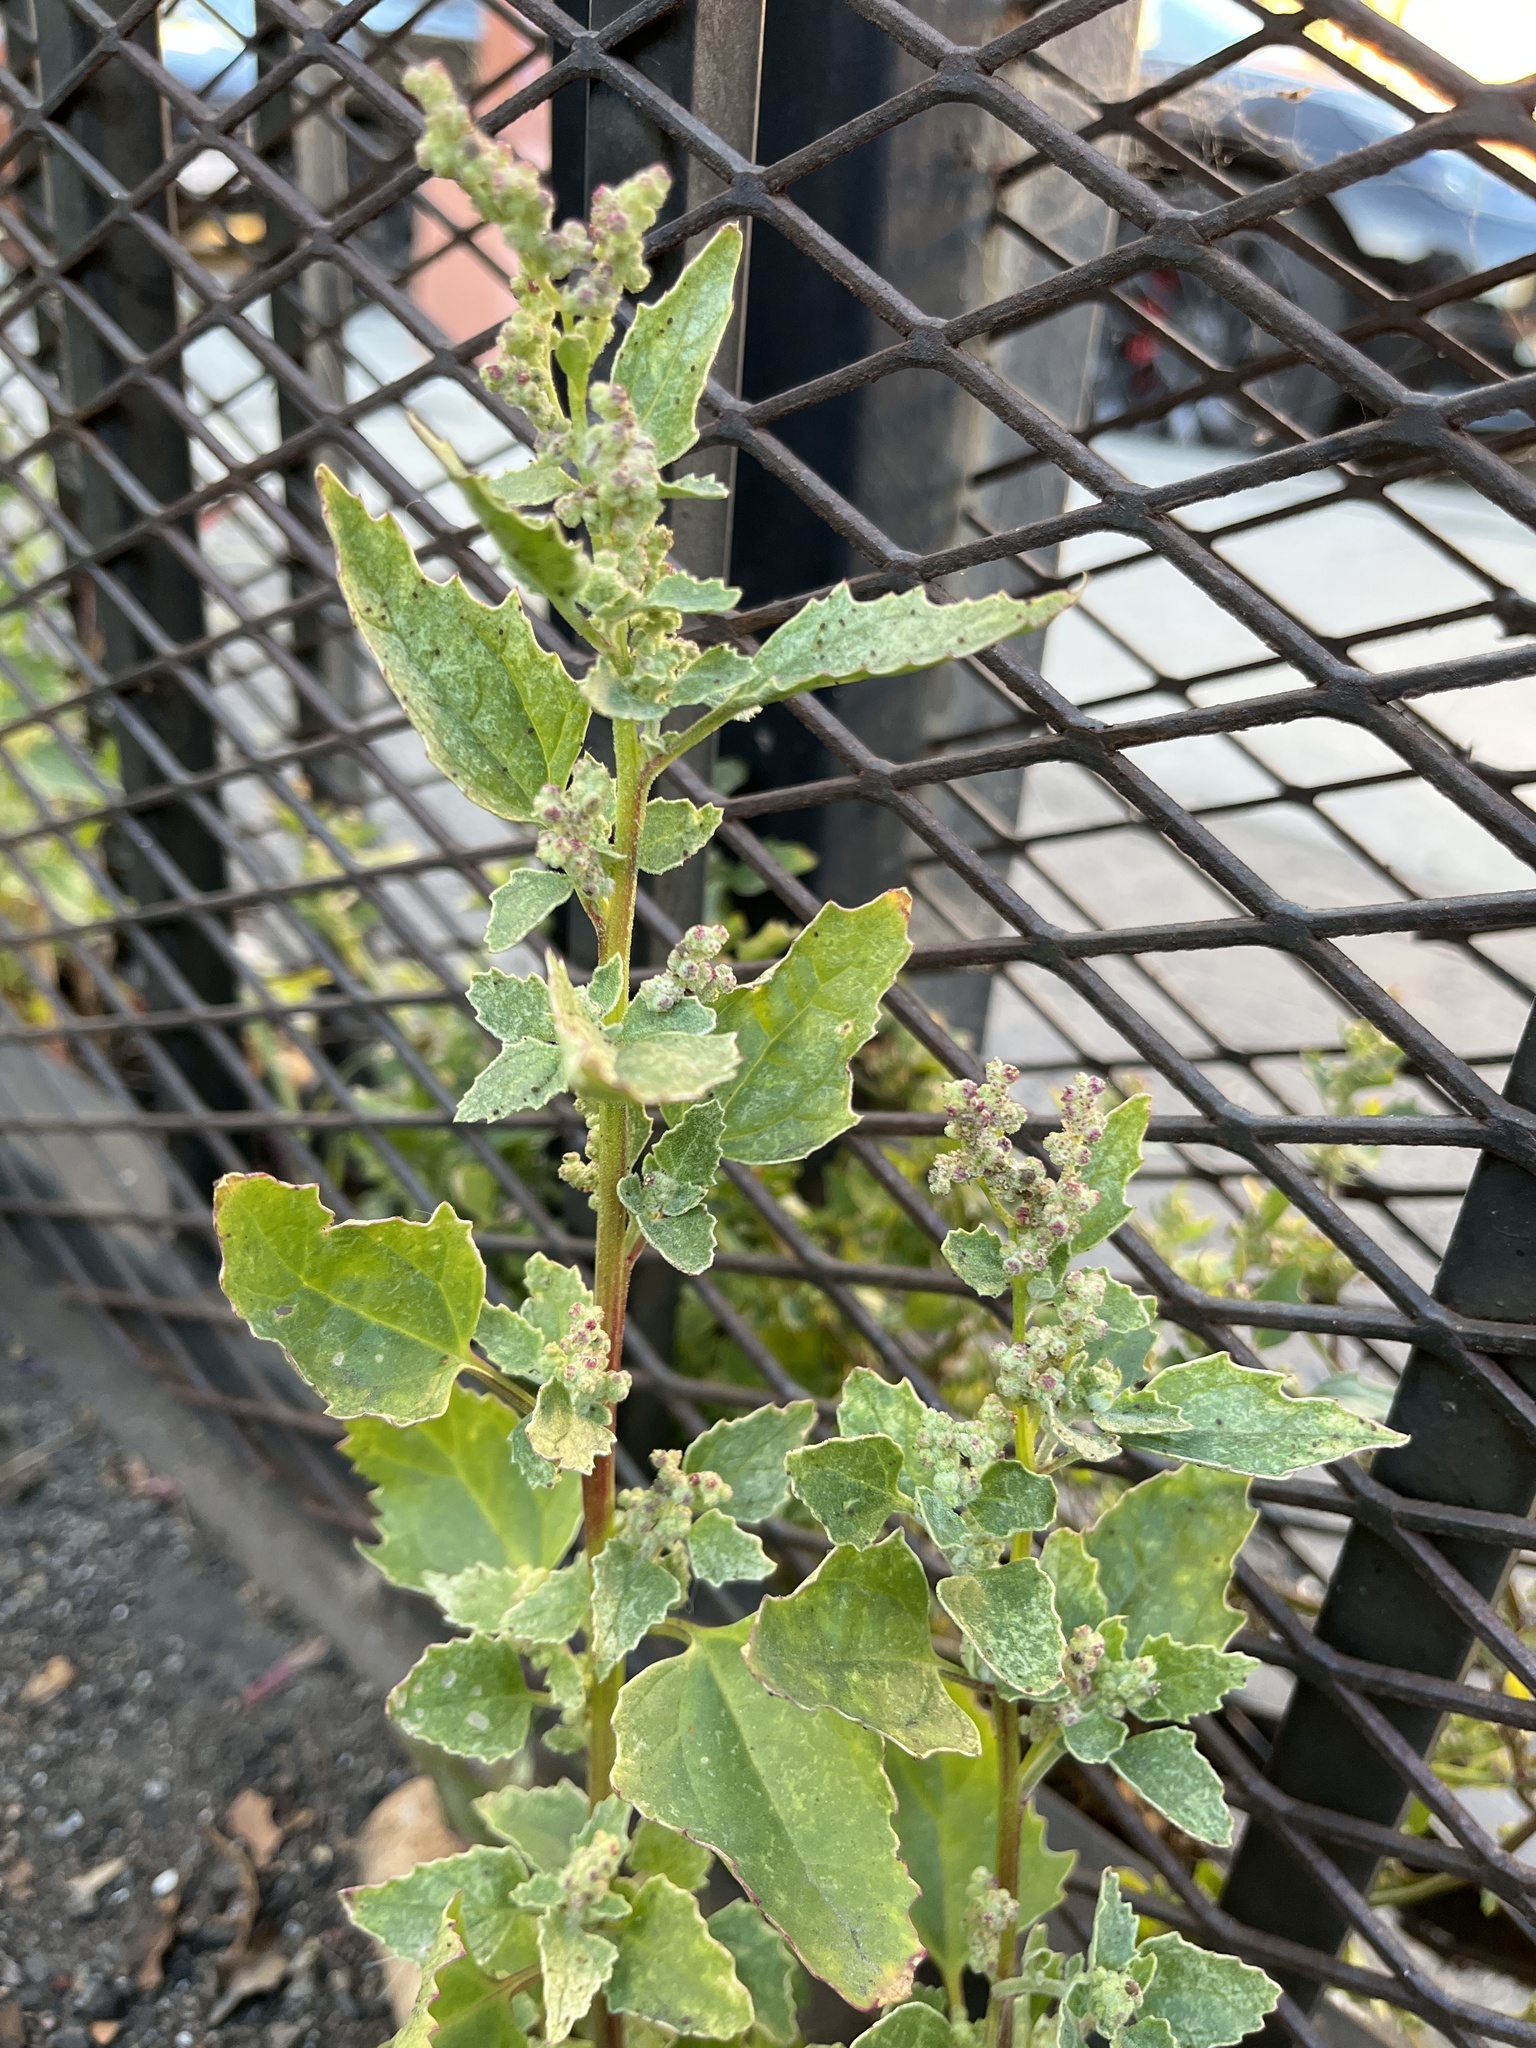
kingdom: Plantae
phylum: Tracheophyta
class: Magnoliopsida
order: Caryophyllales
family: Amaranthaceae
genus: Chenopodiastrum
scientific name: Chenopodiastrum murale
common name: Sowbane
